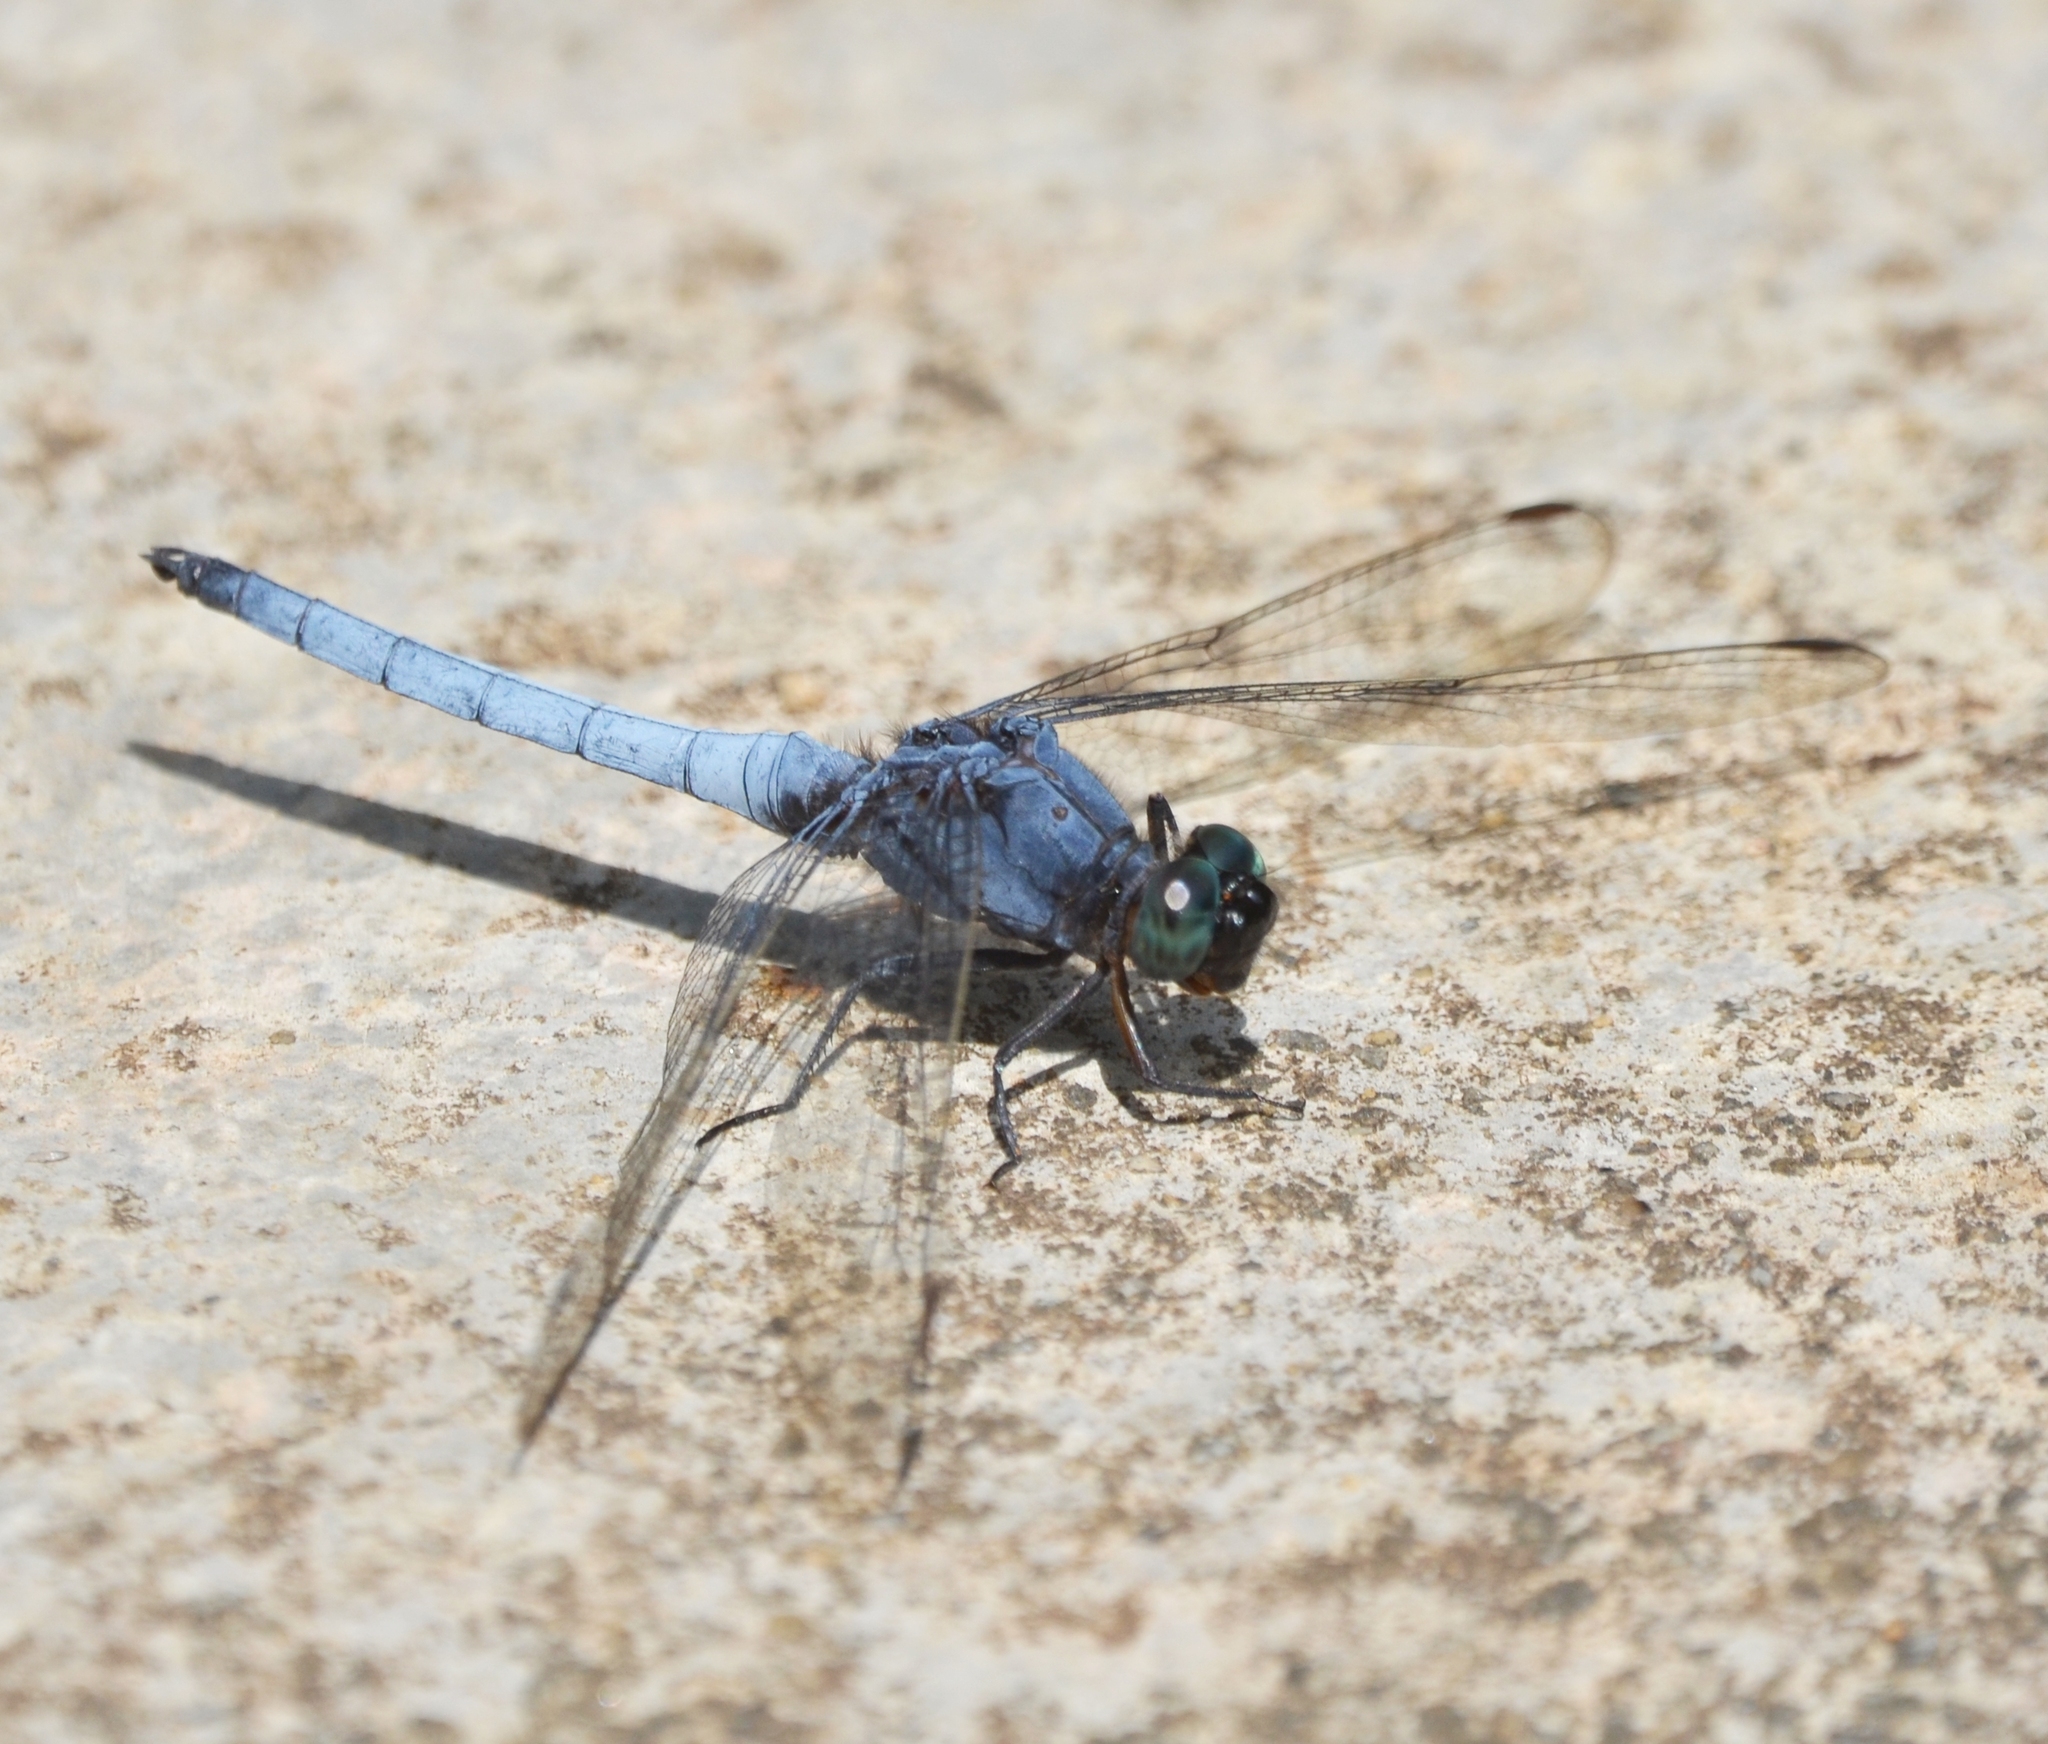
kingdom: Animalia
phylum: Arthropoda
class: Insecta
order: Odonata
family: Libellulidae
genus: Orthetrum
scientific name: Orthetrum glaucum
